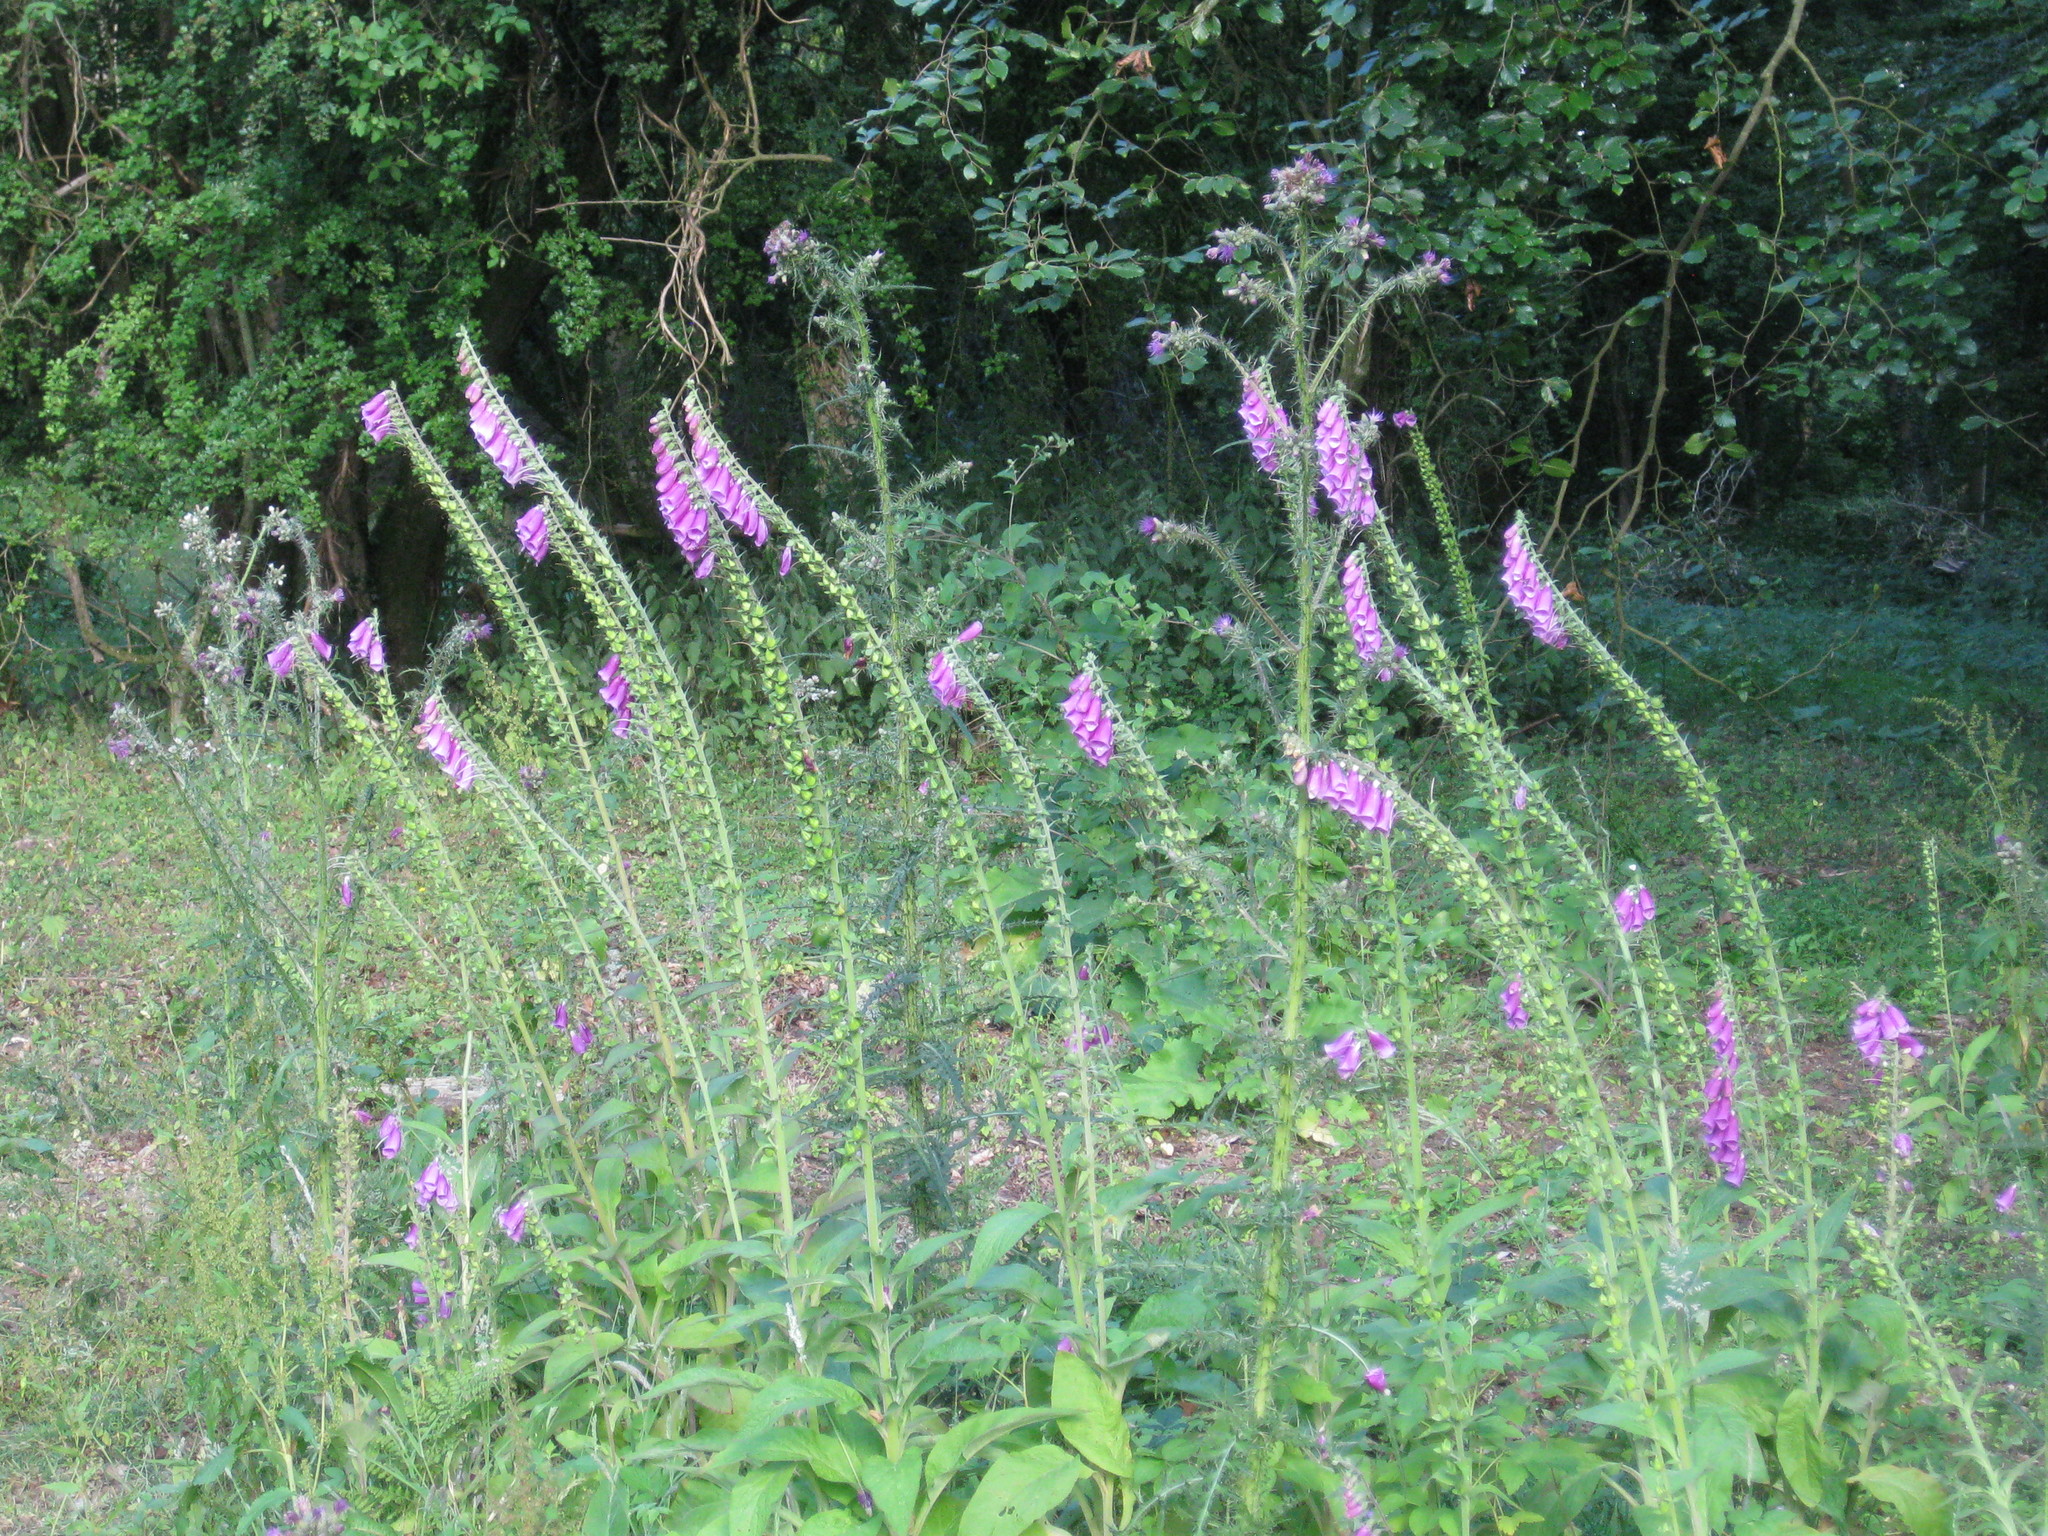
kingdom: Plantae
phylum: Tracheophyta
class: Magnoliopsida
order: Lamiales
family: Plantaginaceae
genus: Digitalis
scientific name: Digitalis purpurea
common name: Foxglove
